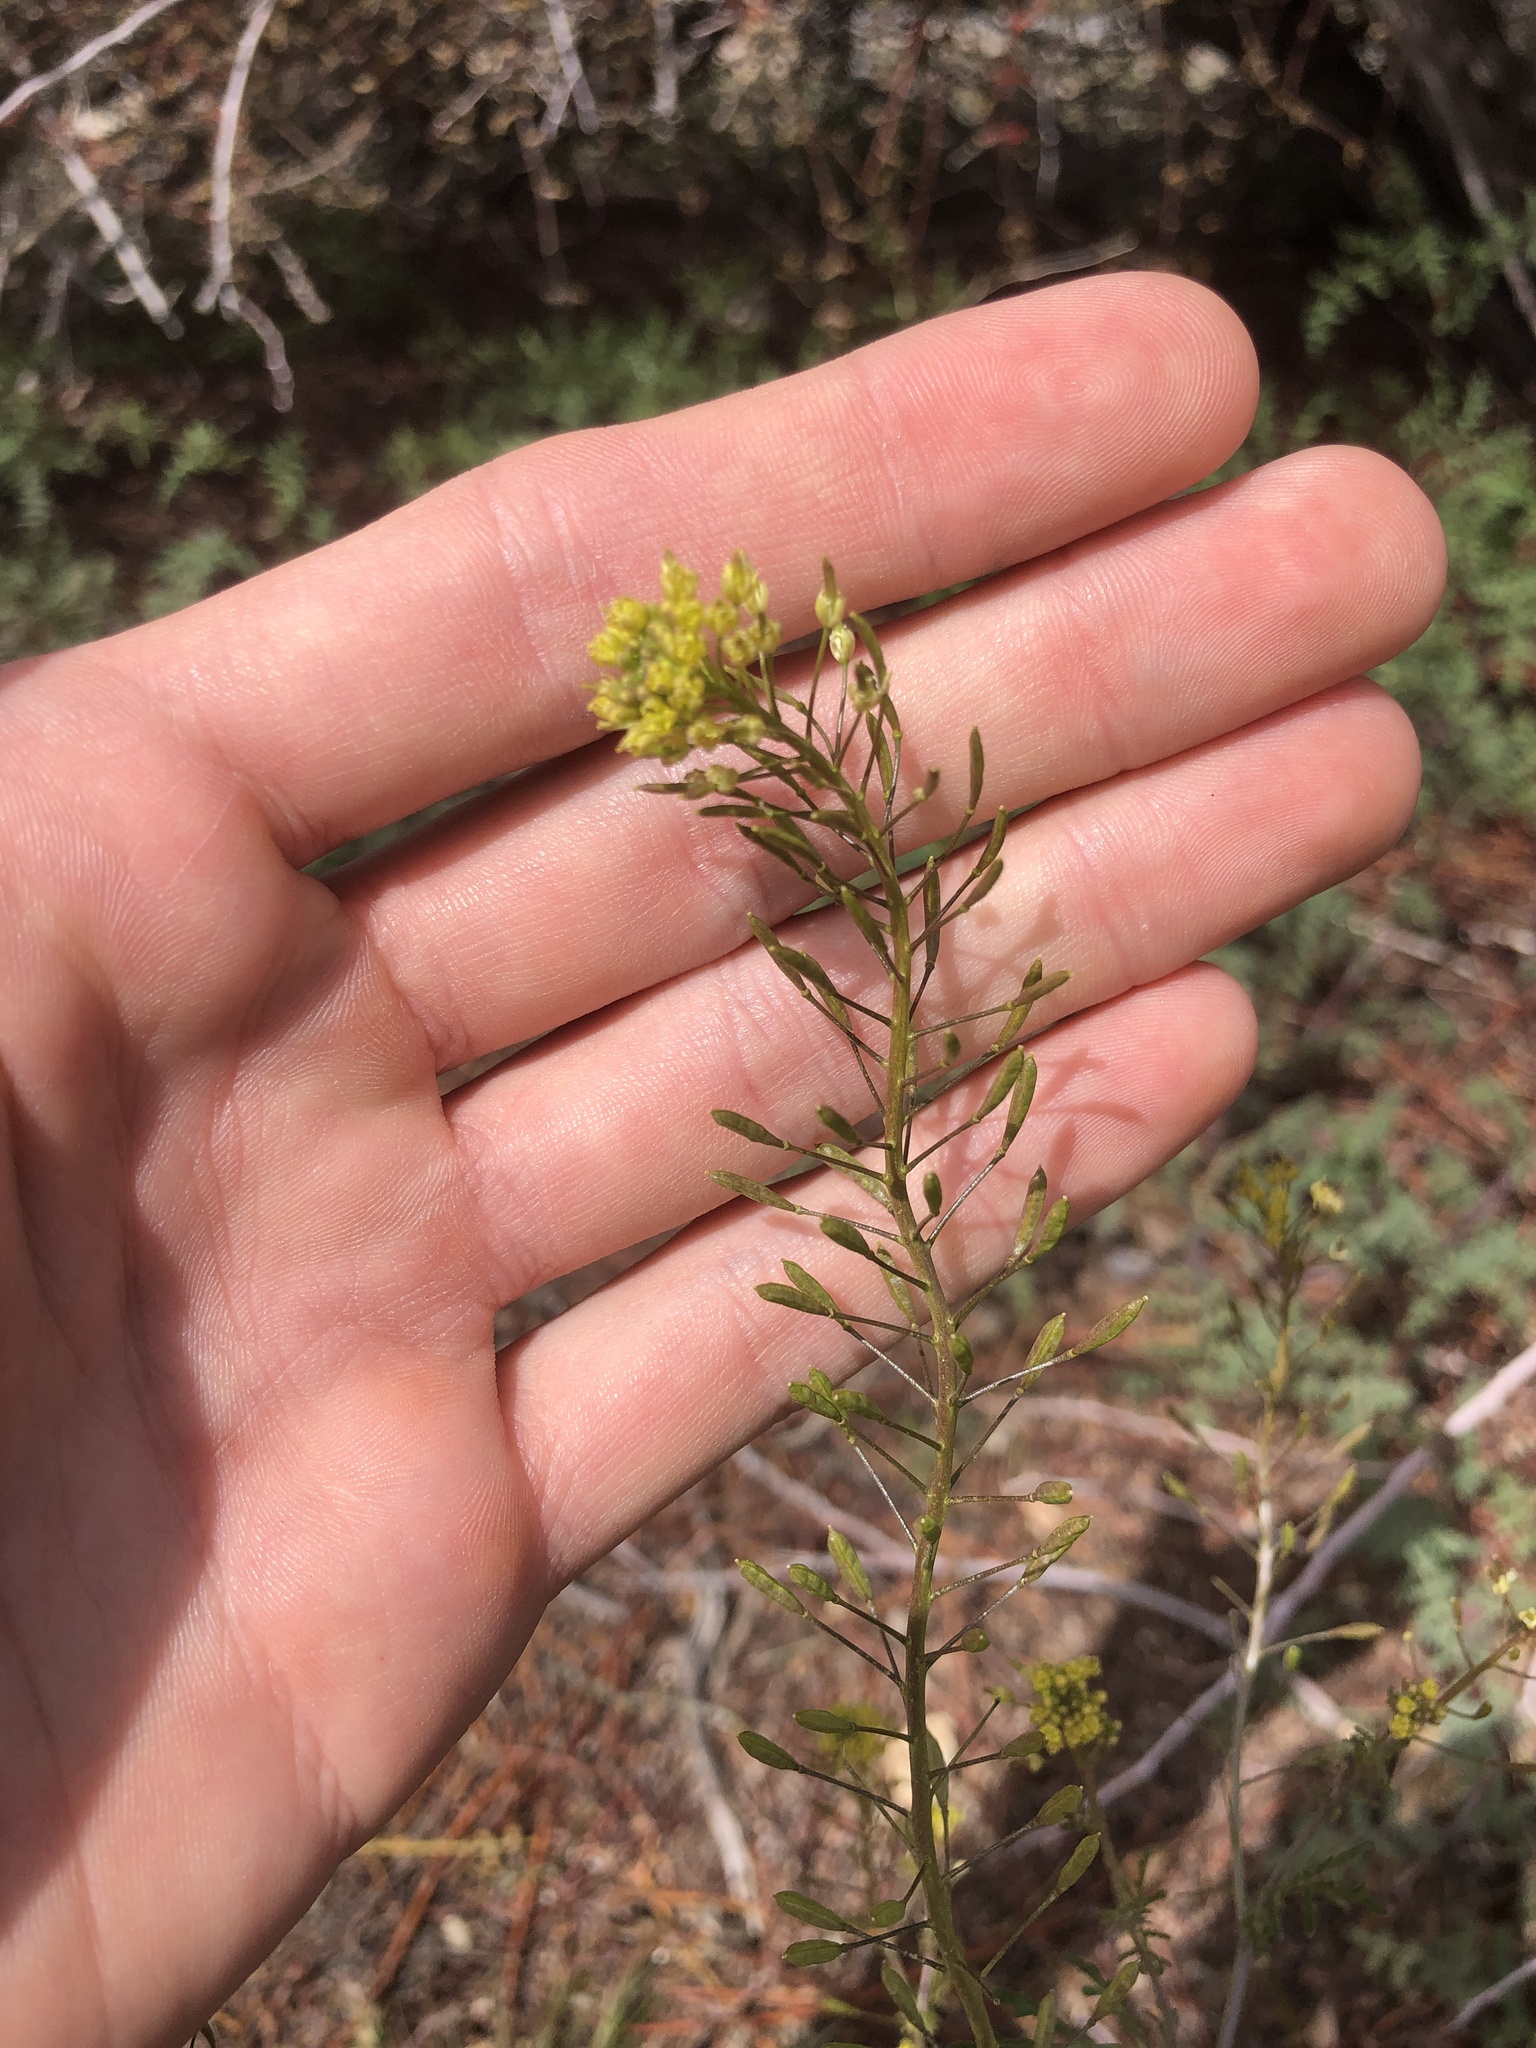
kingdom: Plantae
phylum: Tracheophyta
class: Magnoliopsida
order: Brassicales
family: Brassicaceae
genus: Descurainia
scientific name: Descurainia pinnata
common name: Western tansy mustard
